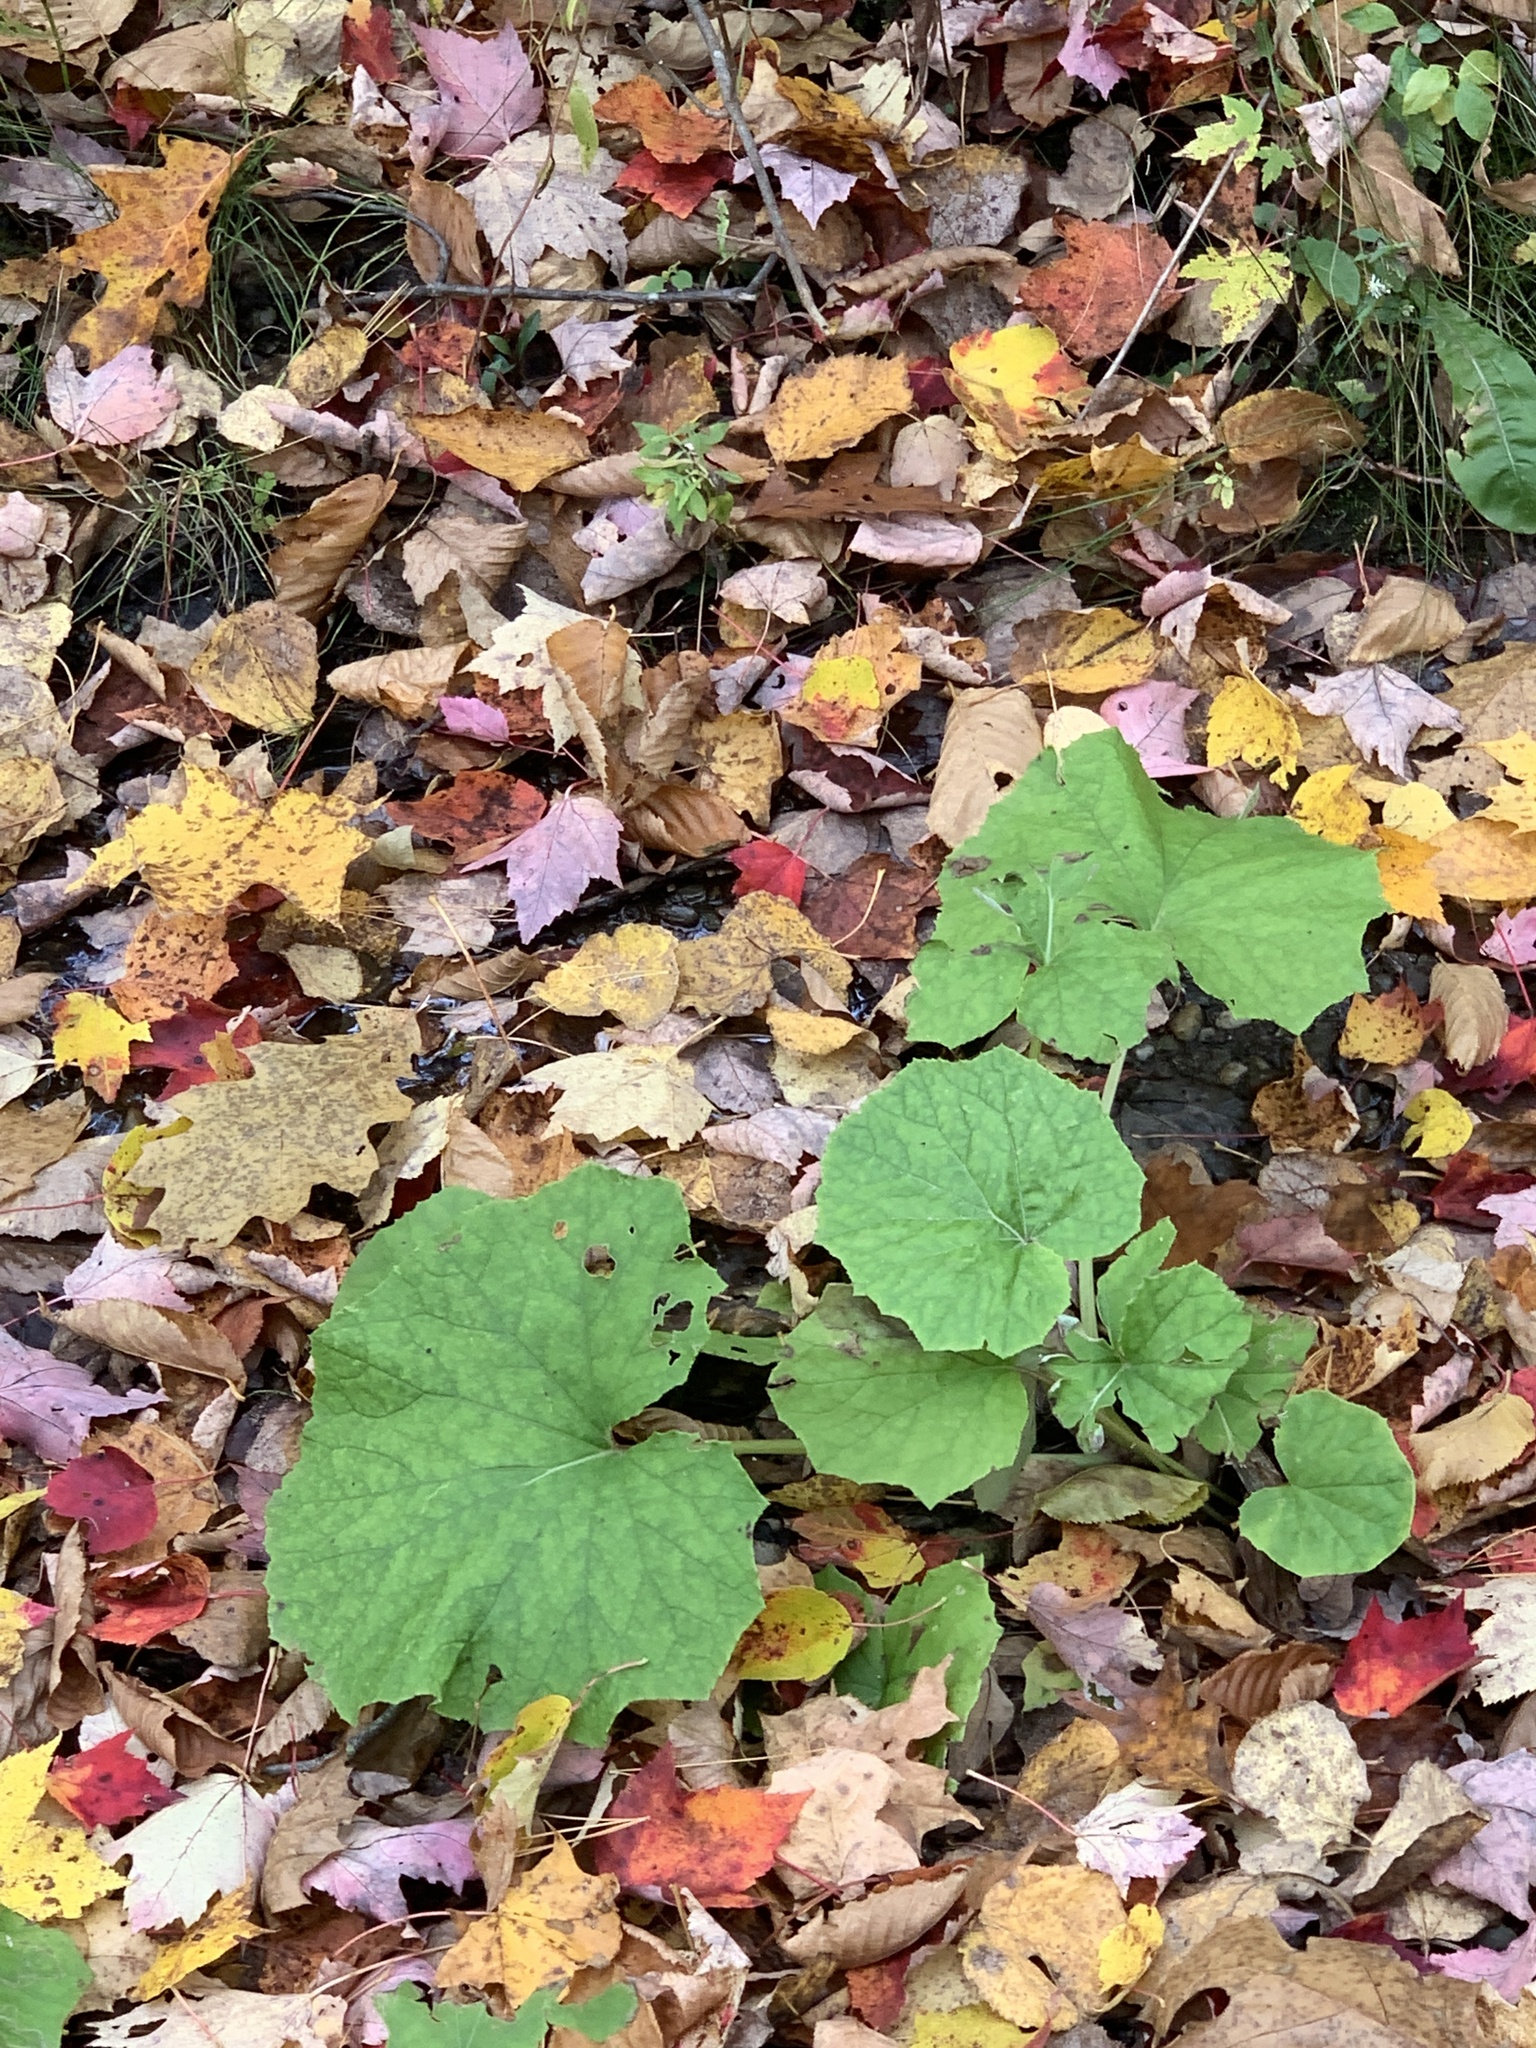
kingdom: Plantae
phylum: Tracheophyta
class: Magnoliopsida
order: Asterales
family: Asteraceae
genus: Tussilago
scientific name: Tussilago farfara
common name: Coltsfoot
